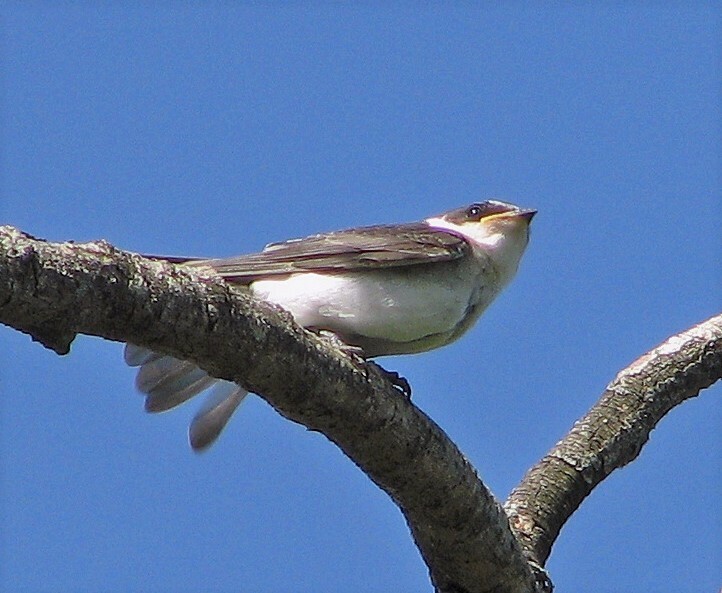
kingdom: Animalia
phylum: Chordata
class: Aves
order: Passeriformes
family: Hirundinidae
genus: Tachycineta
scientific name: Tachycineta leucorrhoa
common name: White-rumped swallow
